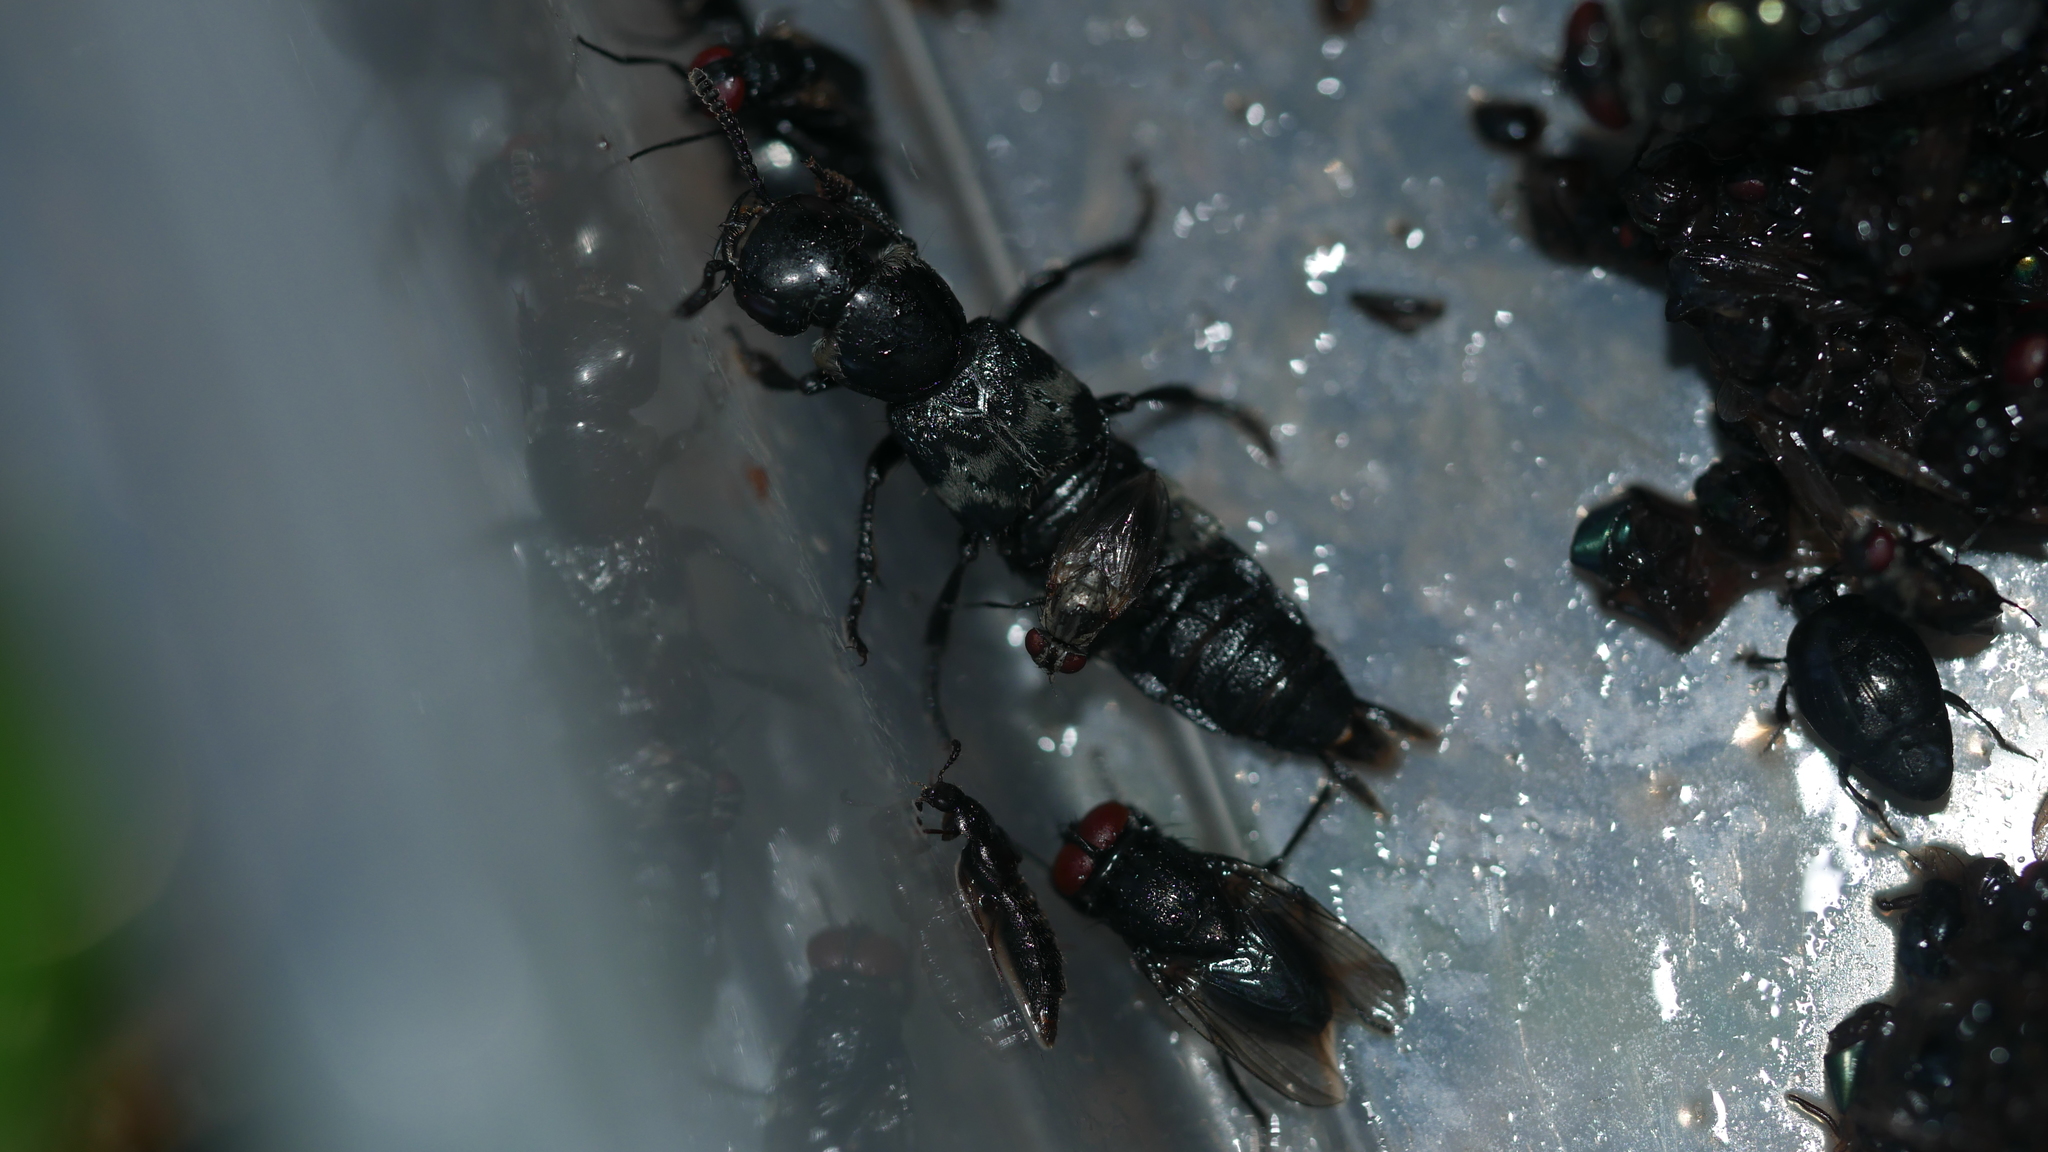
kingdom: Animalia
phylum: Arthropoda
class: Insecta
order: Coleoptera
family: Staphylinidae
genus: Creophilus
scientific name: Creophilus maxillosus
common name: Hairy rove beetle
